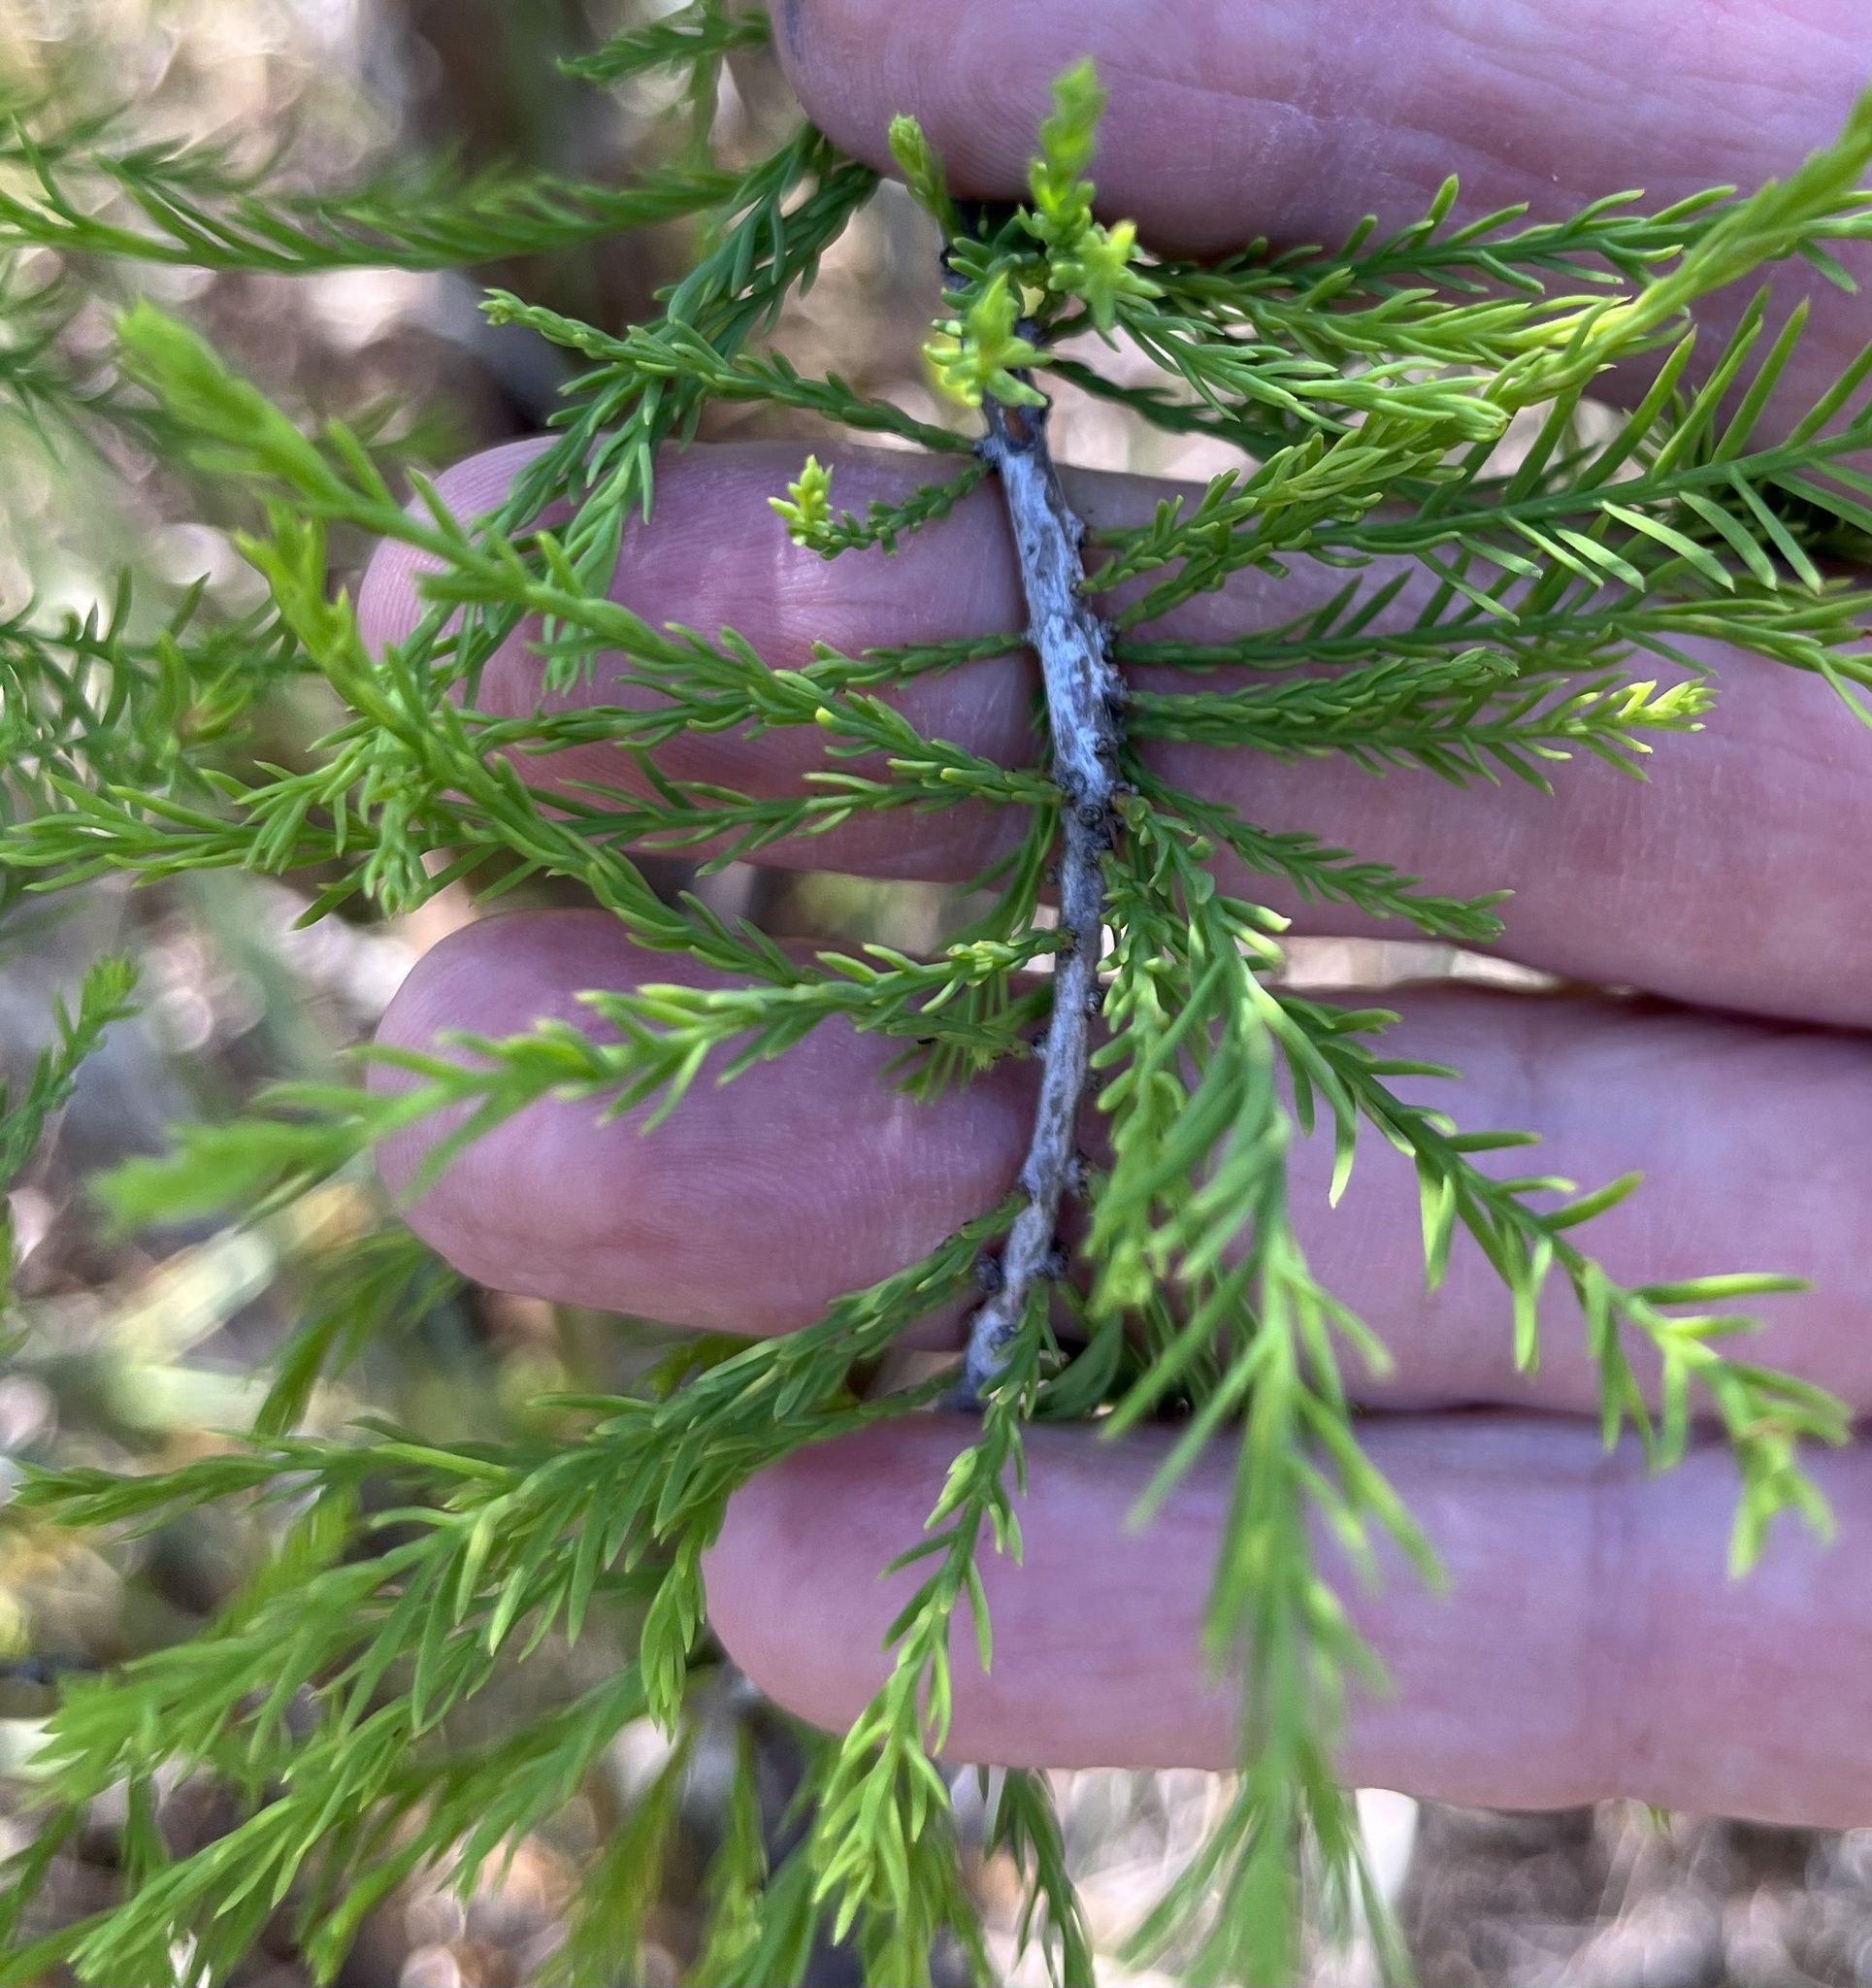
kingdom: Plantae
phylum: Tracheophyta
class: Pinopsida
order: Pinales
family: Cupressaceae
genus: Taxodium
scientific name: Taxodium distichum
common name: Bald cypress
